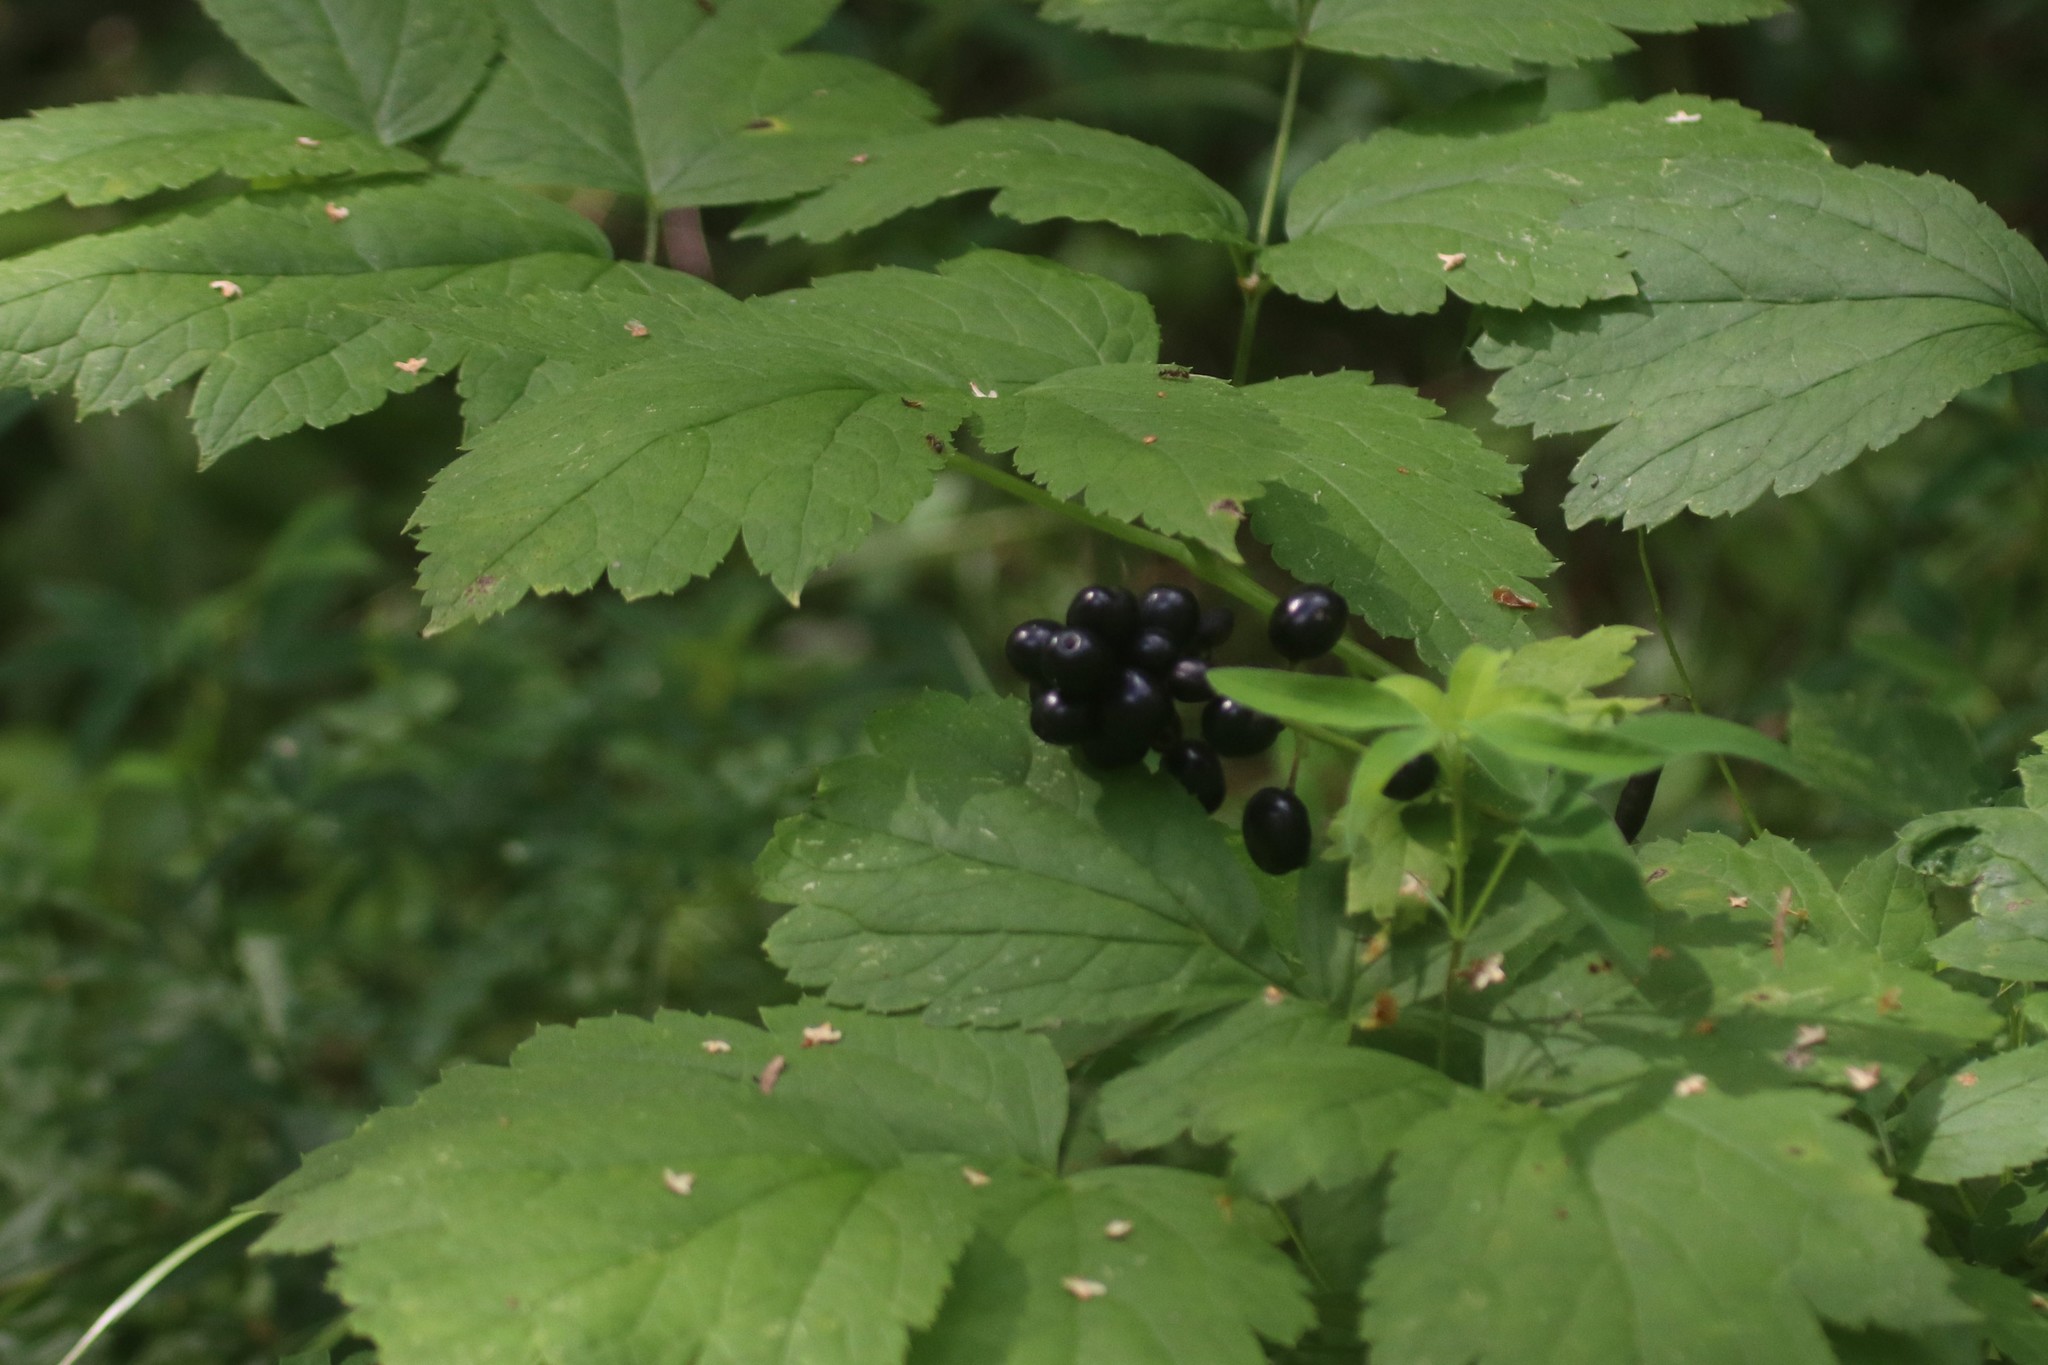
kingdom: Plantae
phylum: Tracheophyta
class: Magnoliopsida
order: Ranunculales
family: Ranunculaceae
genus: Actaea
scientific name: Actaea spicata
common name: Baneberry
